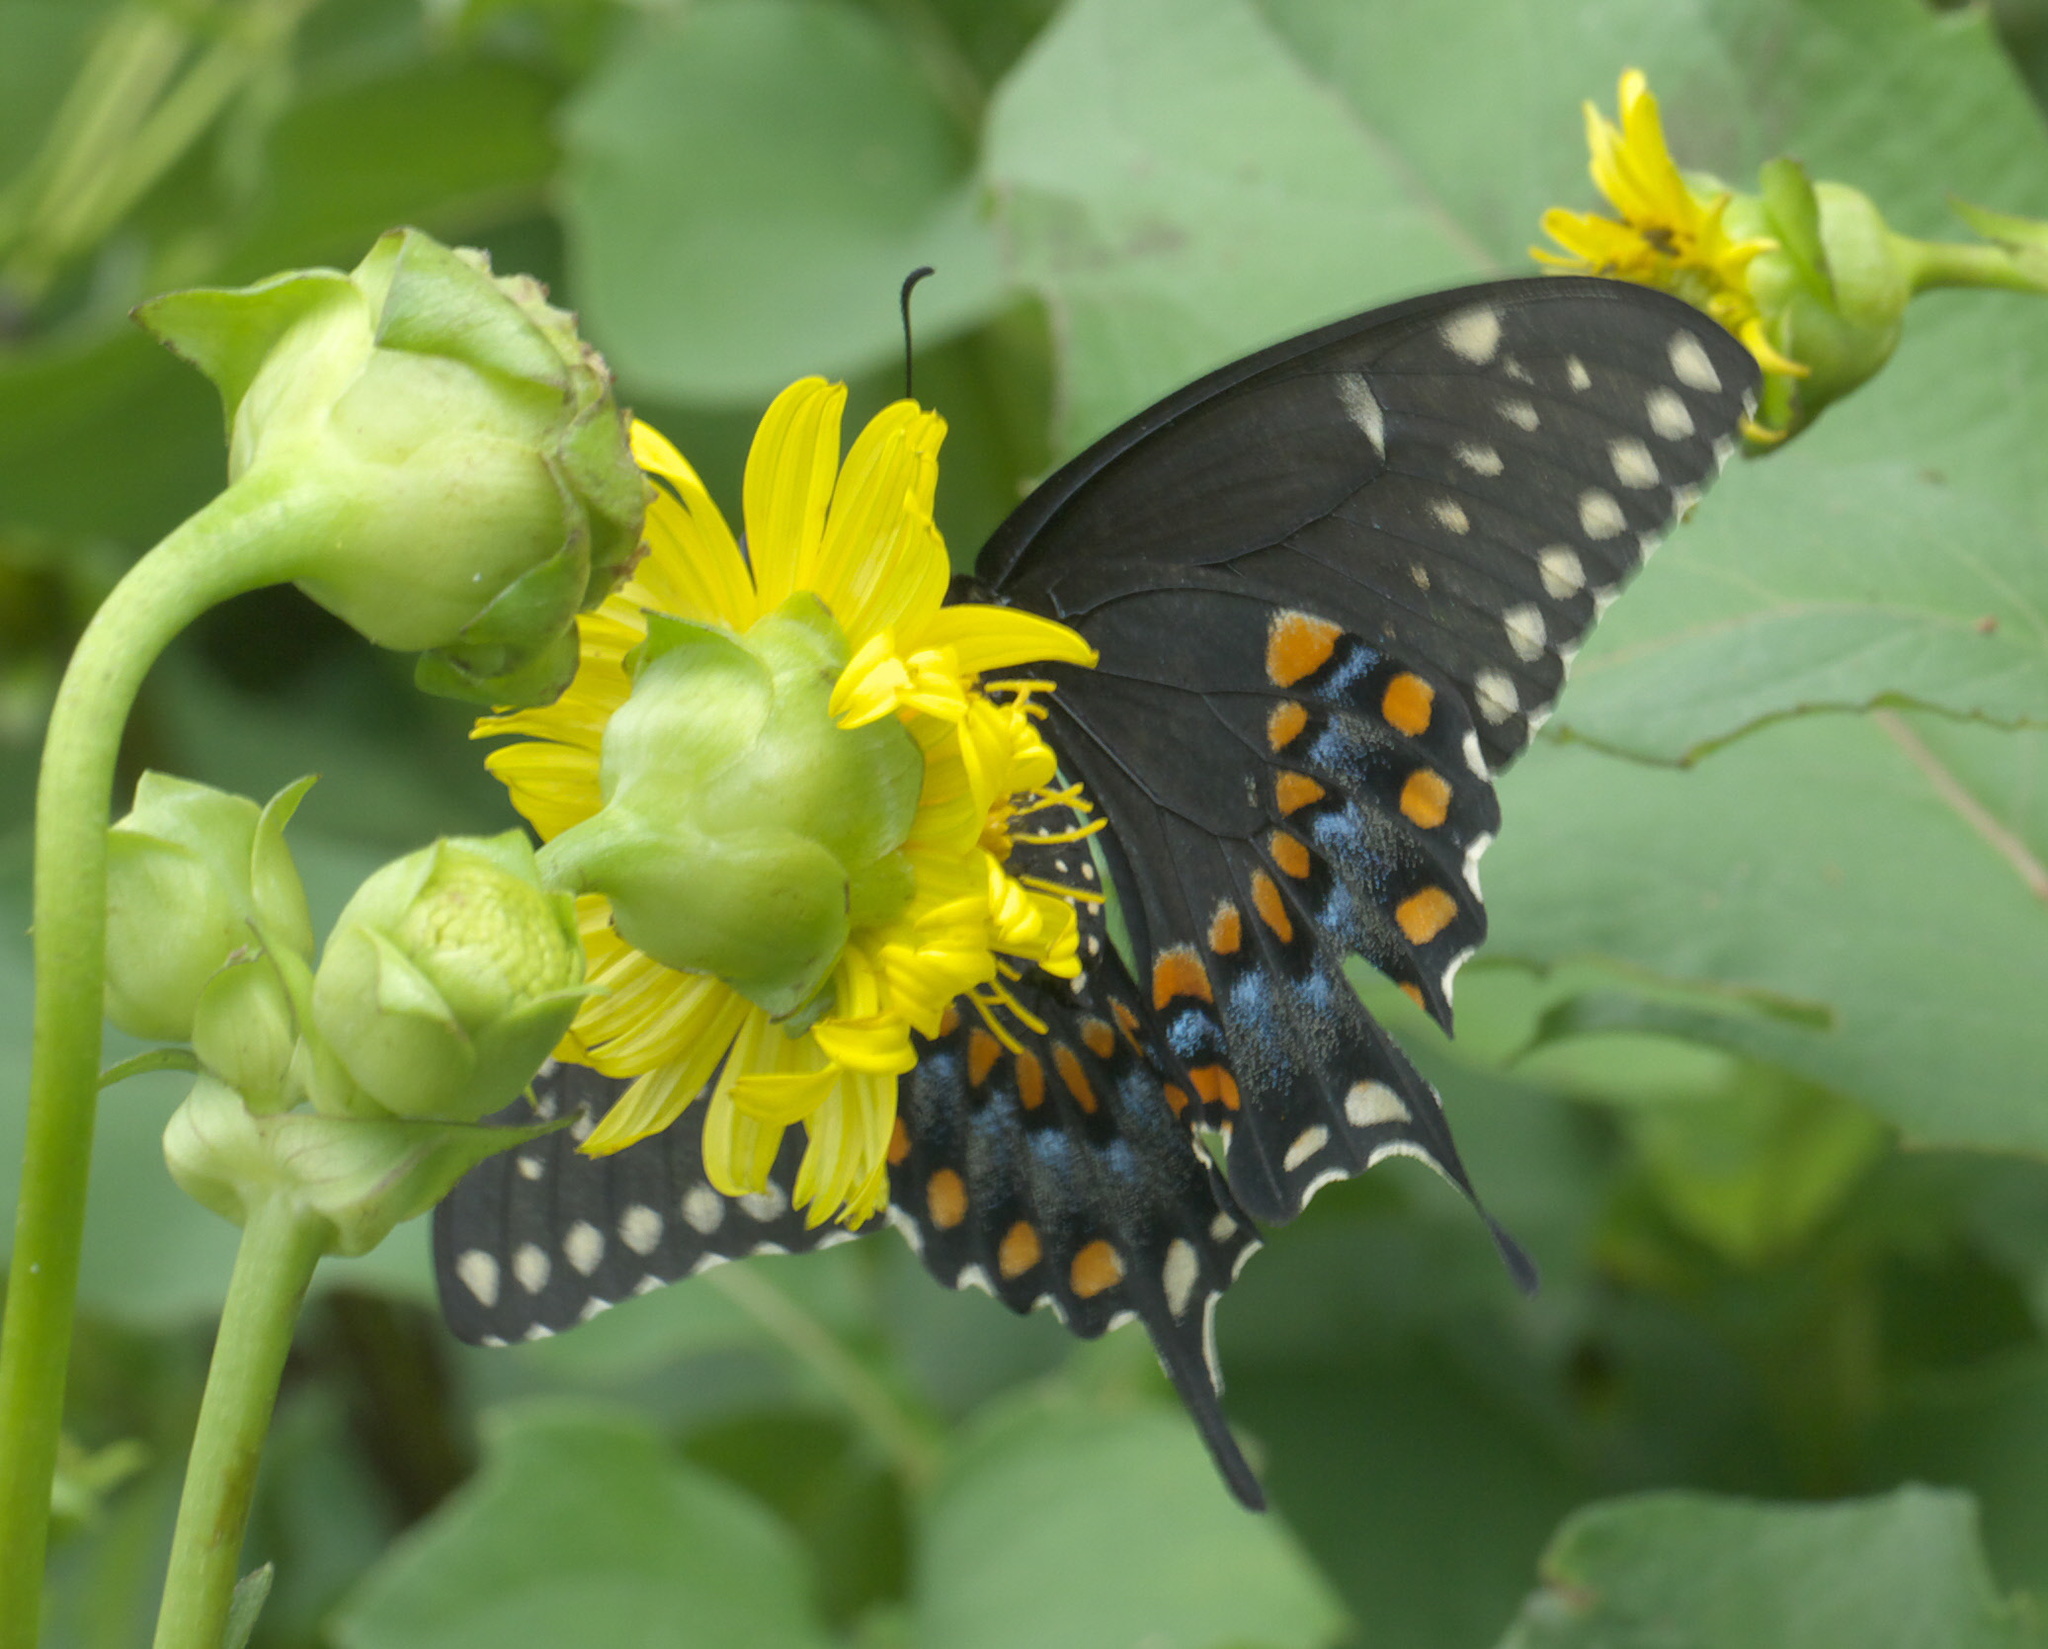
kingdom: Animalia
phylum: Arthropoda
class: Insecta
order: Lepidoptera
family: Papilionidae
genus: Papilio
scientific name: Papilio polyxenes
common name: Black swallowtail
